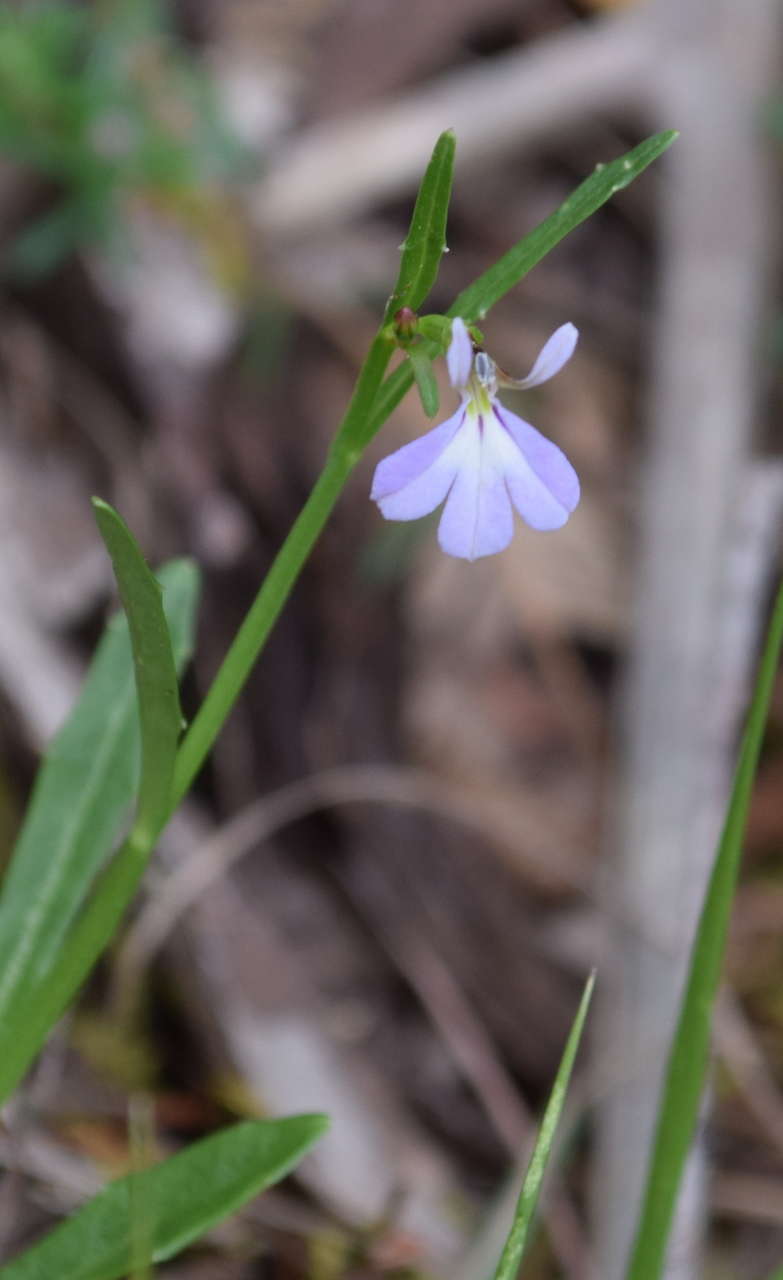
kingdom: Plantae
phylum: Tracheophyta
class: Magnoliopsida
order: Asterales
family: Campanulaceae
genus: Lobelia
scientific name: Lobelia anceps
